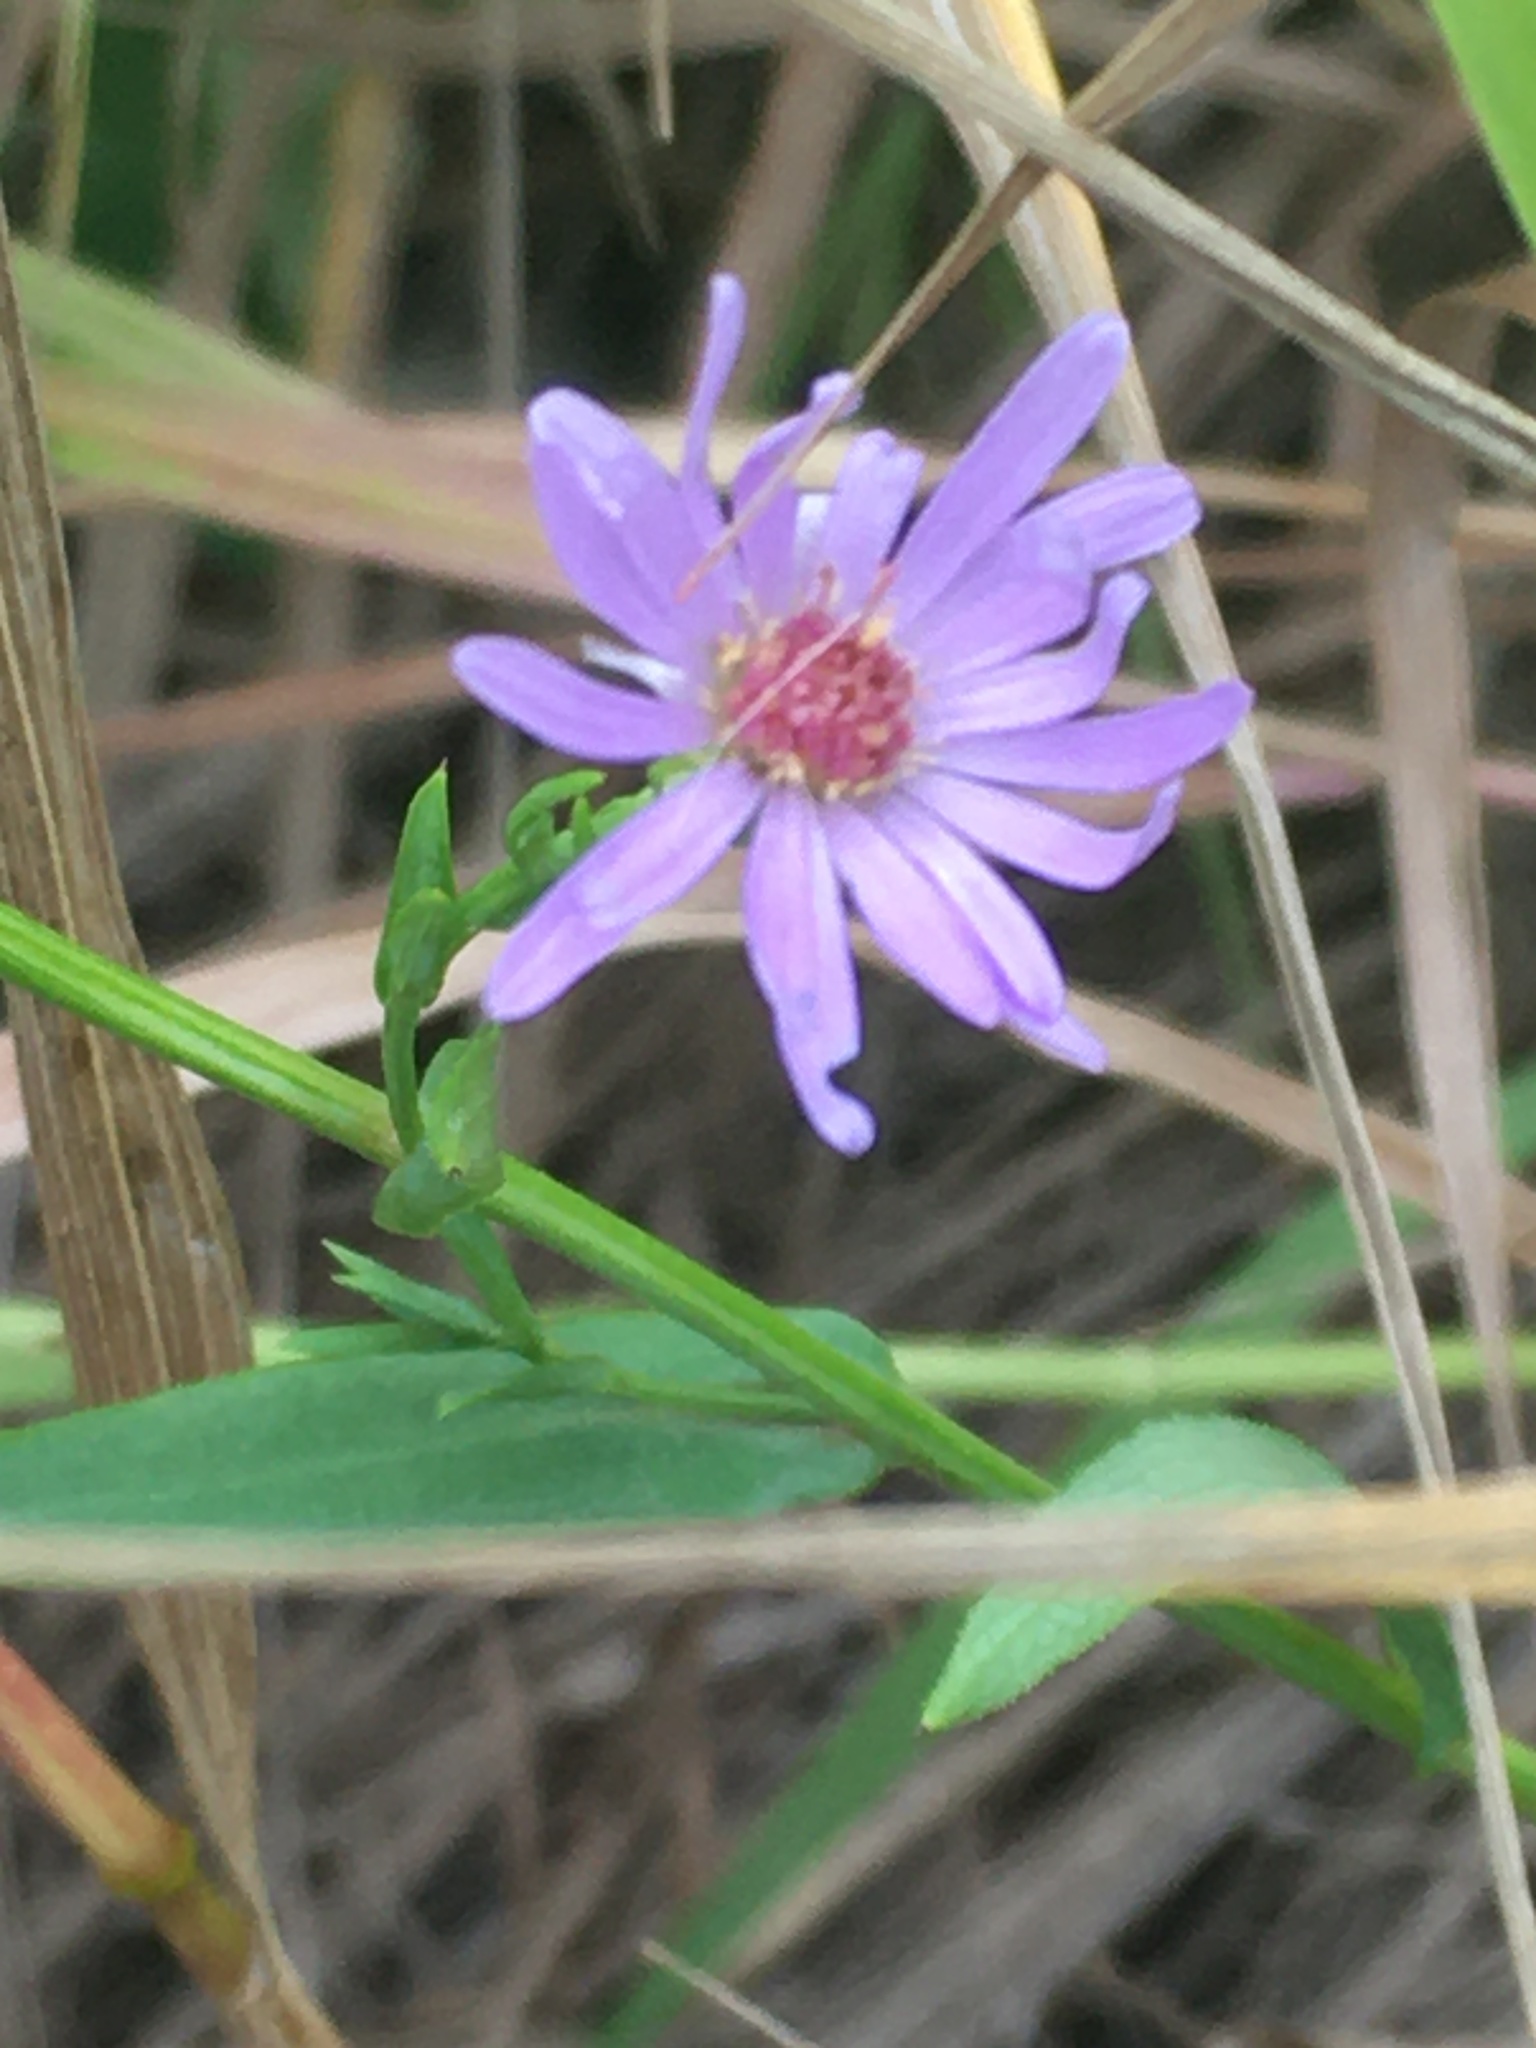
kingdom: Plantae
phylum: Tracheophyta
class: Magnoliopsida
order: Asterales
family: Asteraceae
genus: Symphyotrichum
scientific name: Symphyotrichum laeve
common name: Glaucous aster
